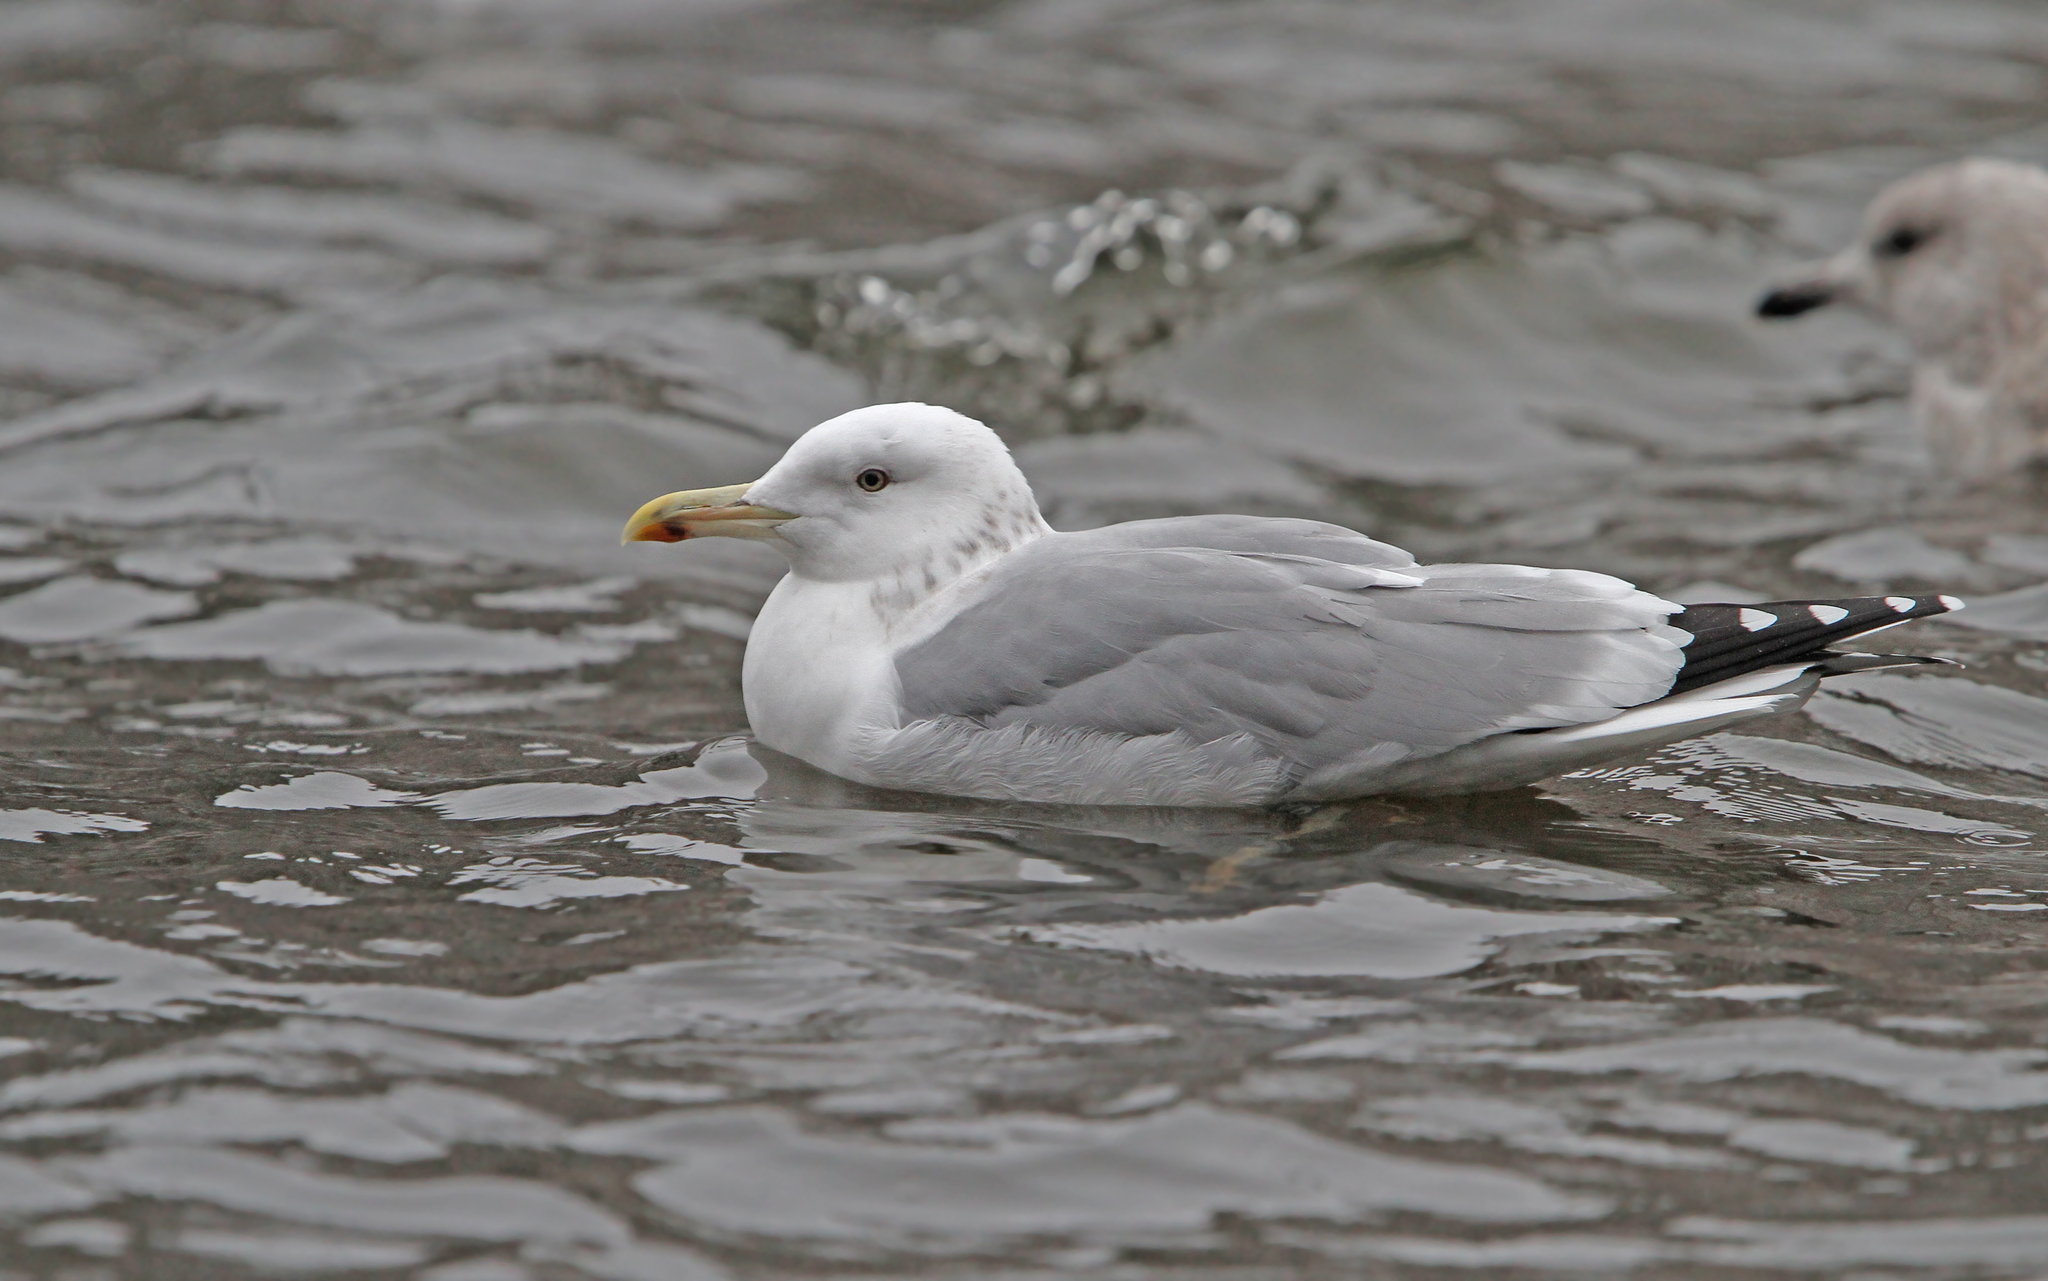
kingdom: Animalia
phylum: Chordata
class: Aves
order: Charadriiformes
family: Laridae
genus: Larus
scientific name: Larus cachinnans
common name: Caspian gull
